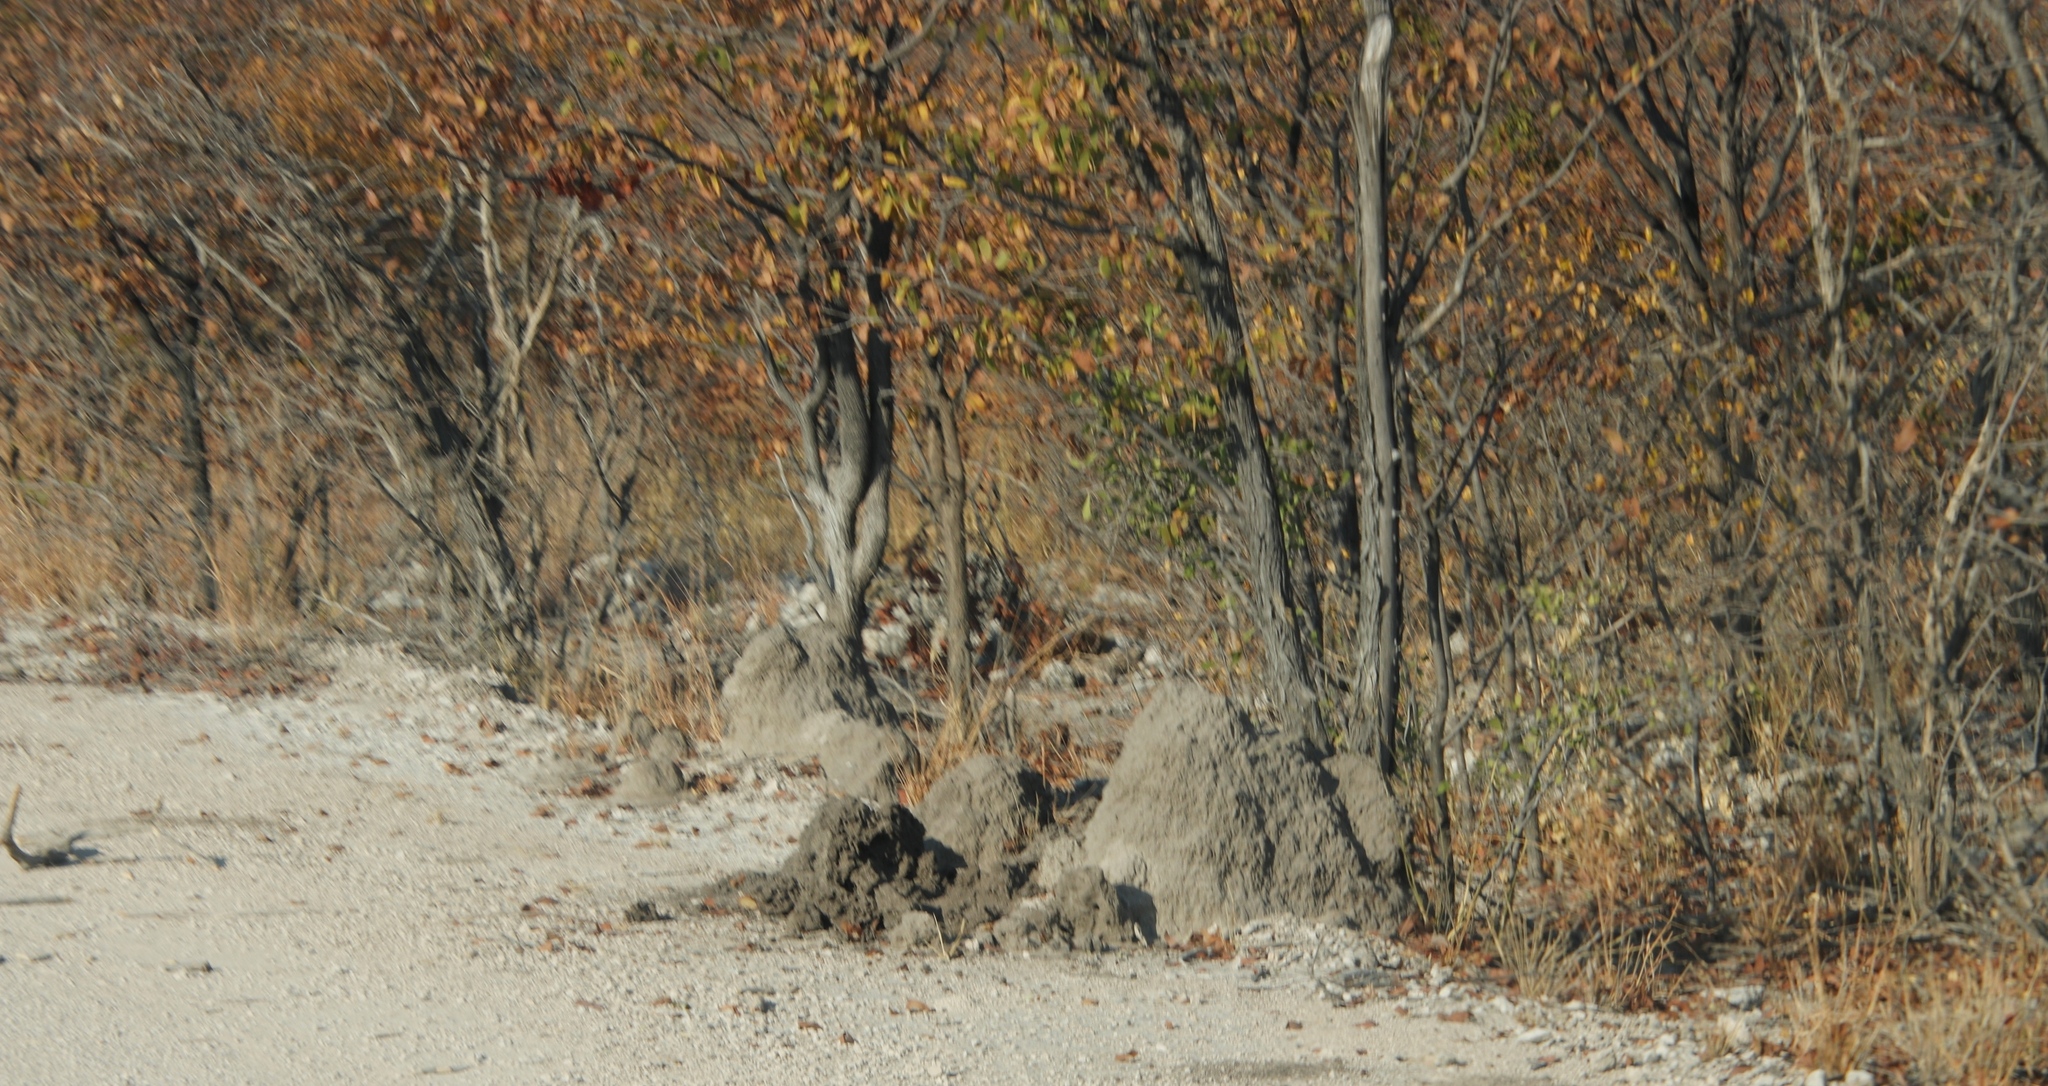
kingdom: Plantae
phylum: Tracheophyta
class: Magnoliopsida
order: Fabales
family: Fabaceae
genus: Colophospermum
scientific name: Colophospermum mopane
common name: Mopane
